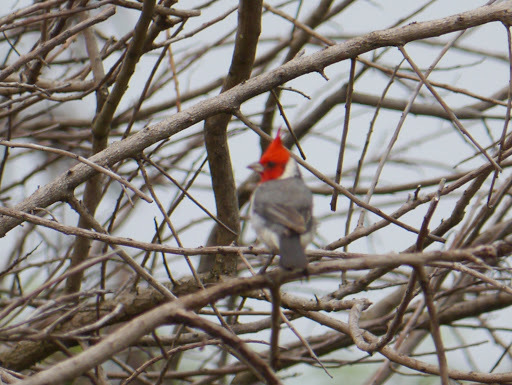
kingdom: Animalia
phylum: Chordata
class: Aves
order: Passeriformes
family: Thraupidae
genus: Paroaria
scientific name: Paroaria coronata
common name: Red-crested cardinal
